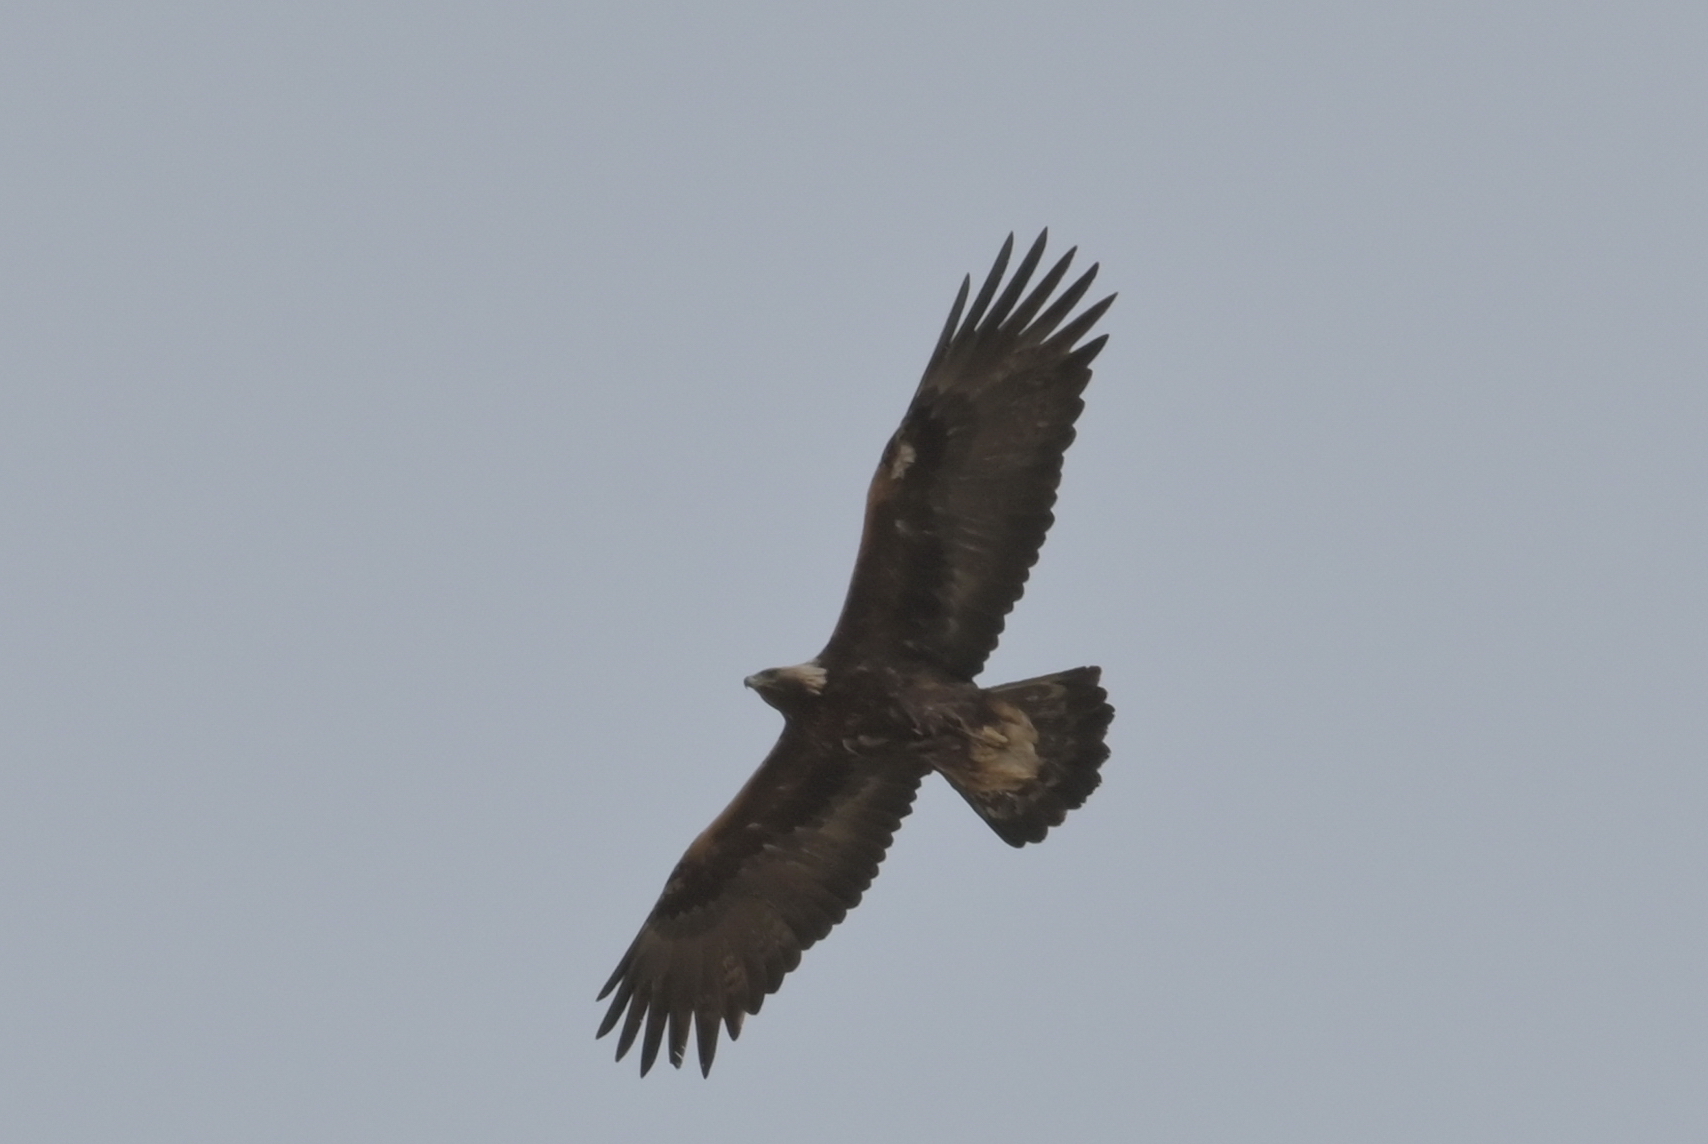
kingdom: Animalia
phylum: Chordata
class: Aves
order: Accipitriformes
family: Accipitridae
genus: Aquila
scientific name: Aquila chrysaetos
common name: Golden eagle
